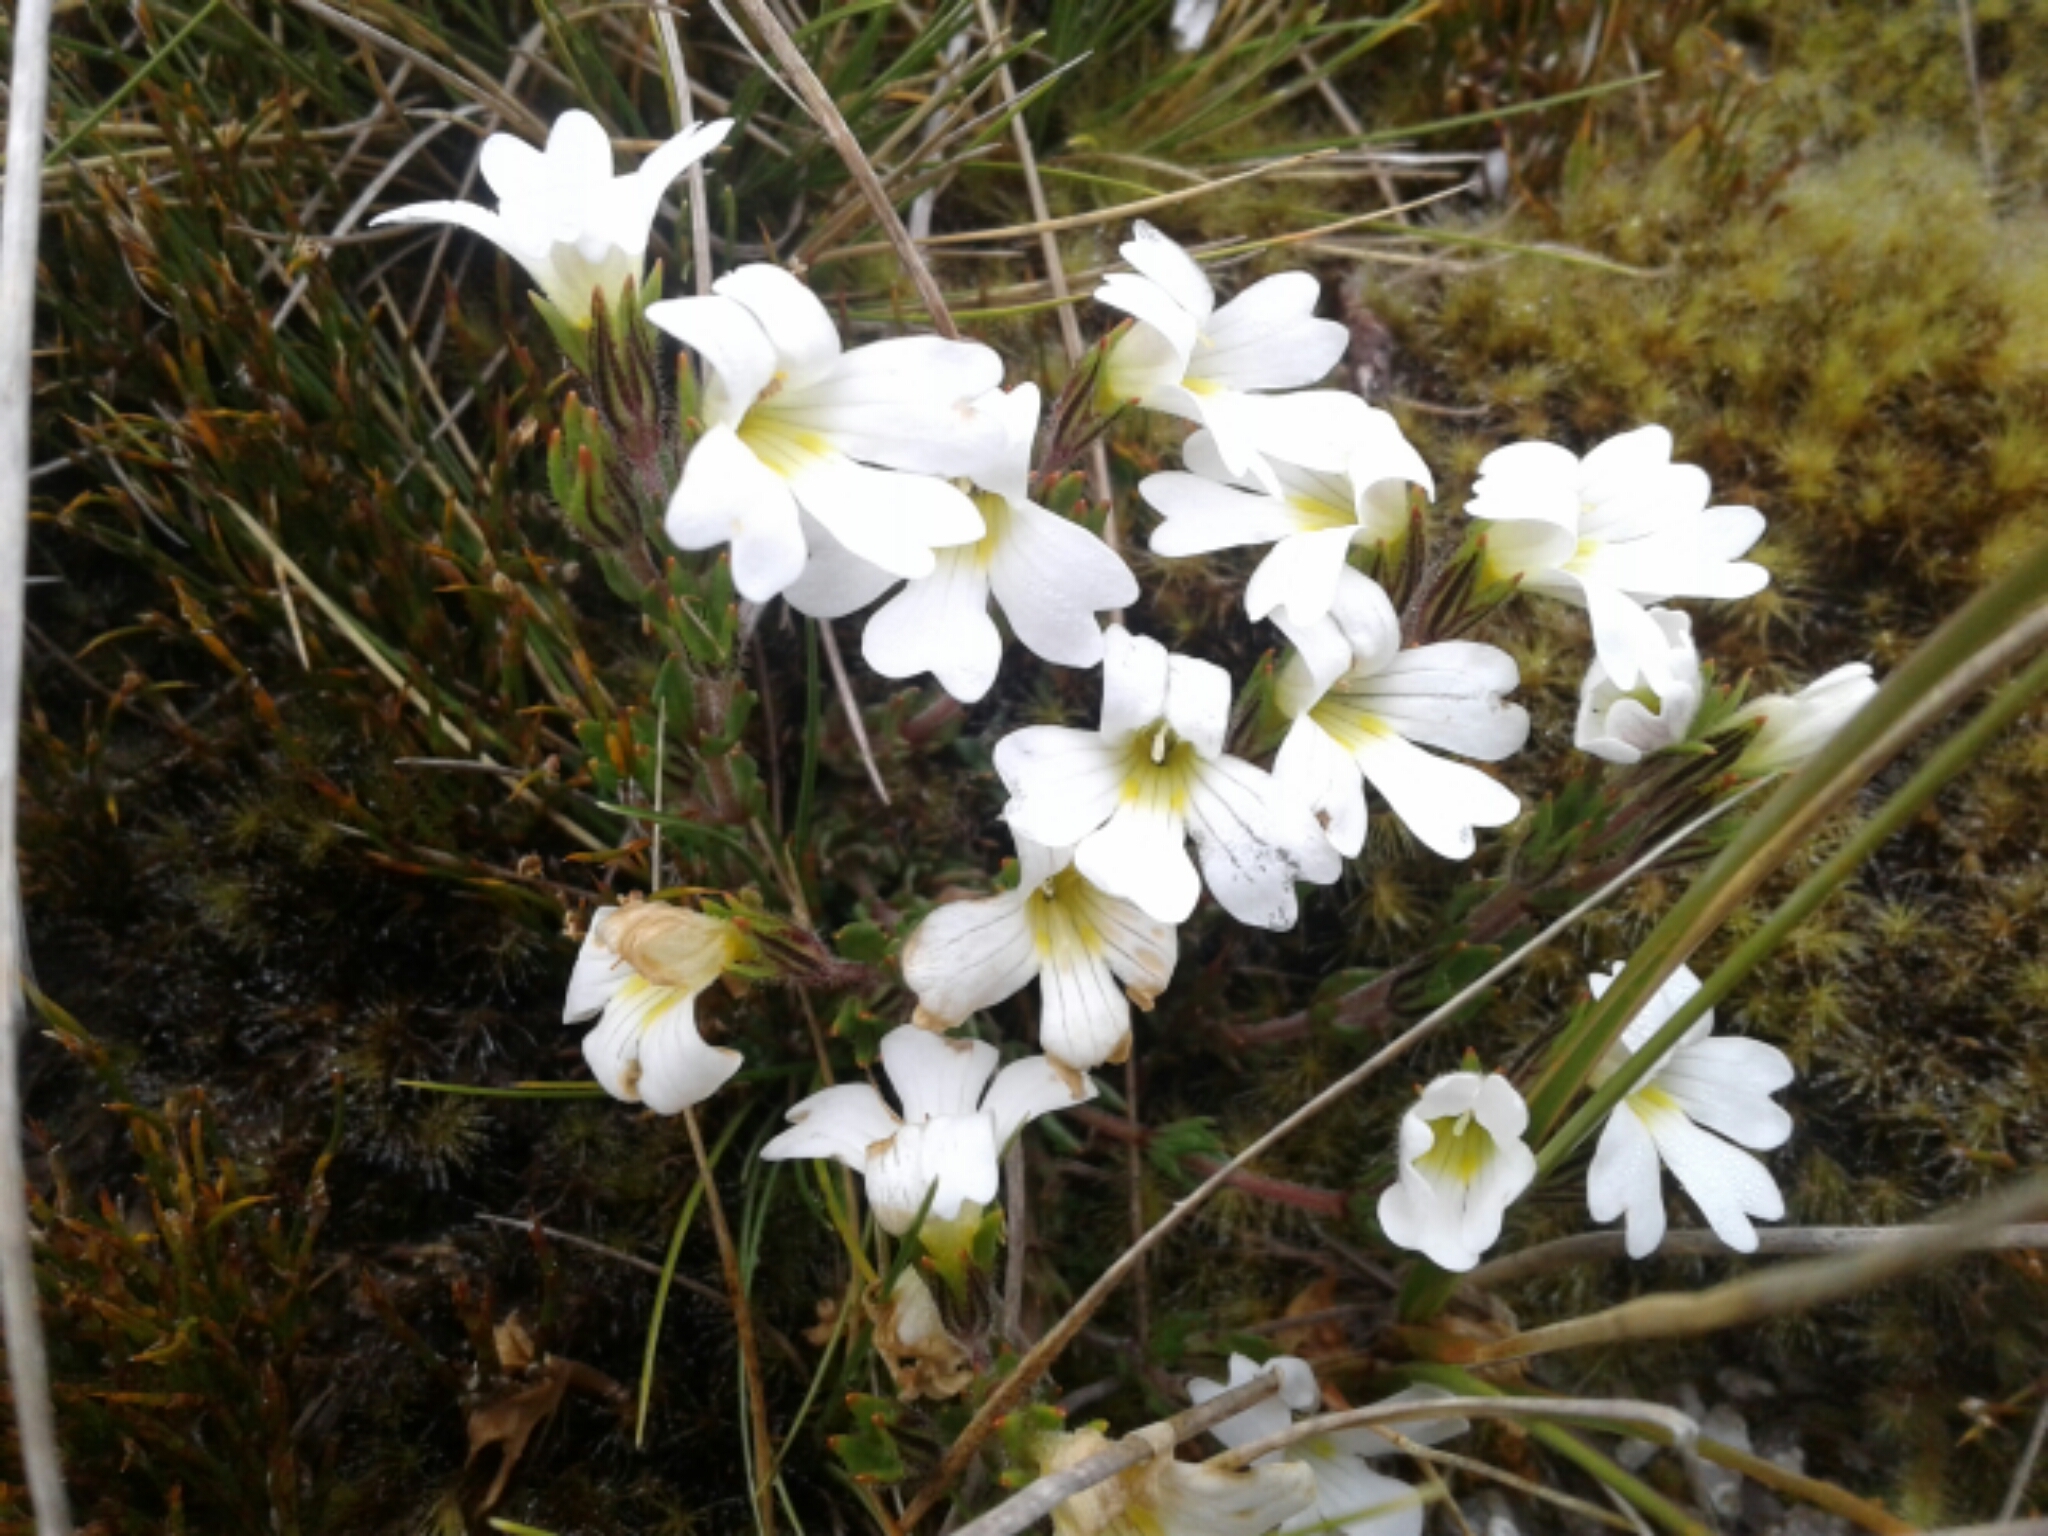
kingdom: Plantae
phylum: Tracheophyta
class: Magnoliopsida
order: Lamiales
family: Orobanchaceae
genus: Euphrasia
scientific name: Euphrasia
